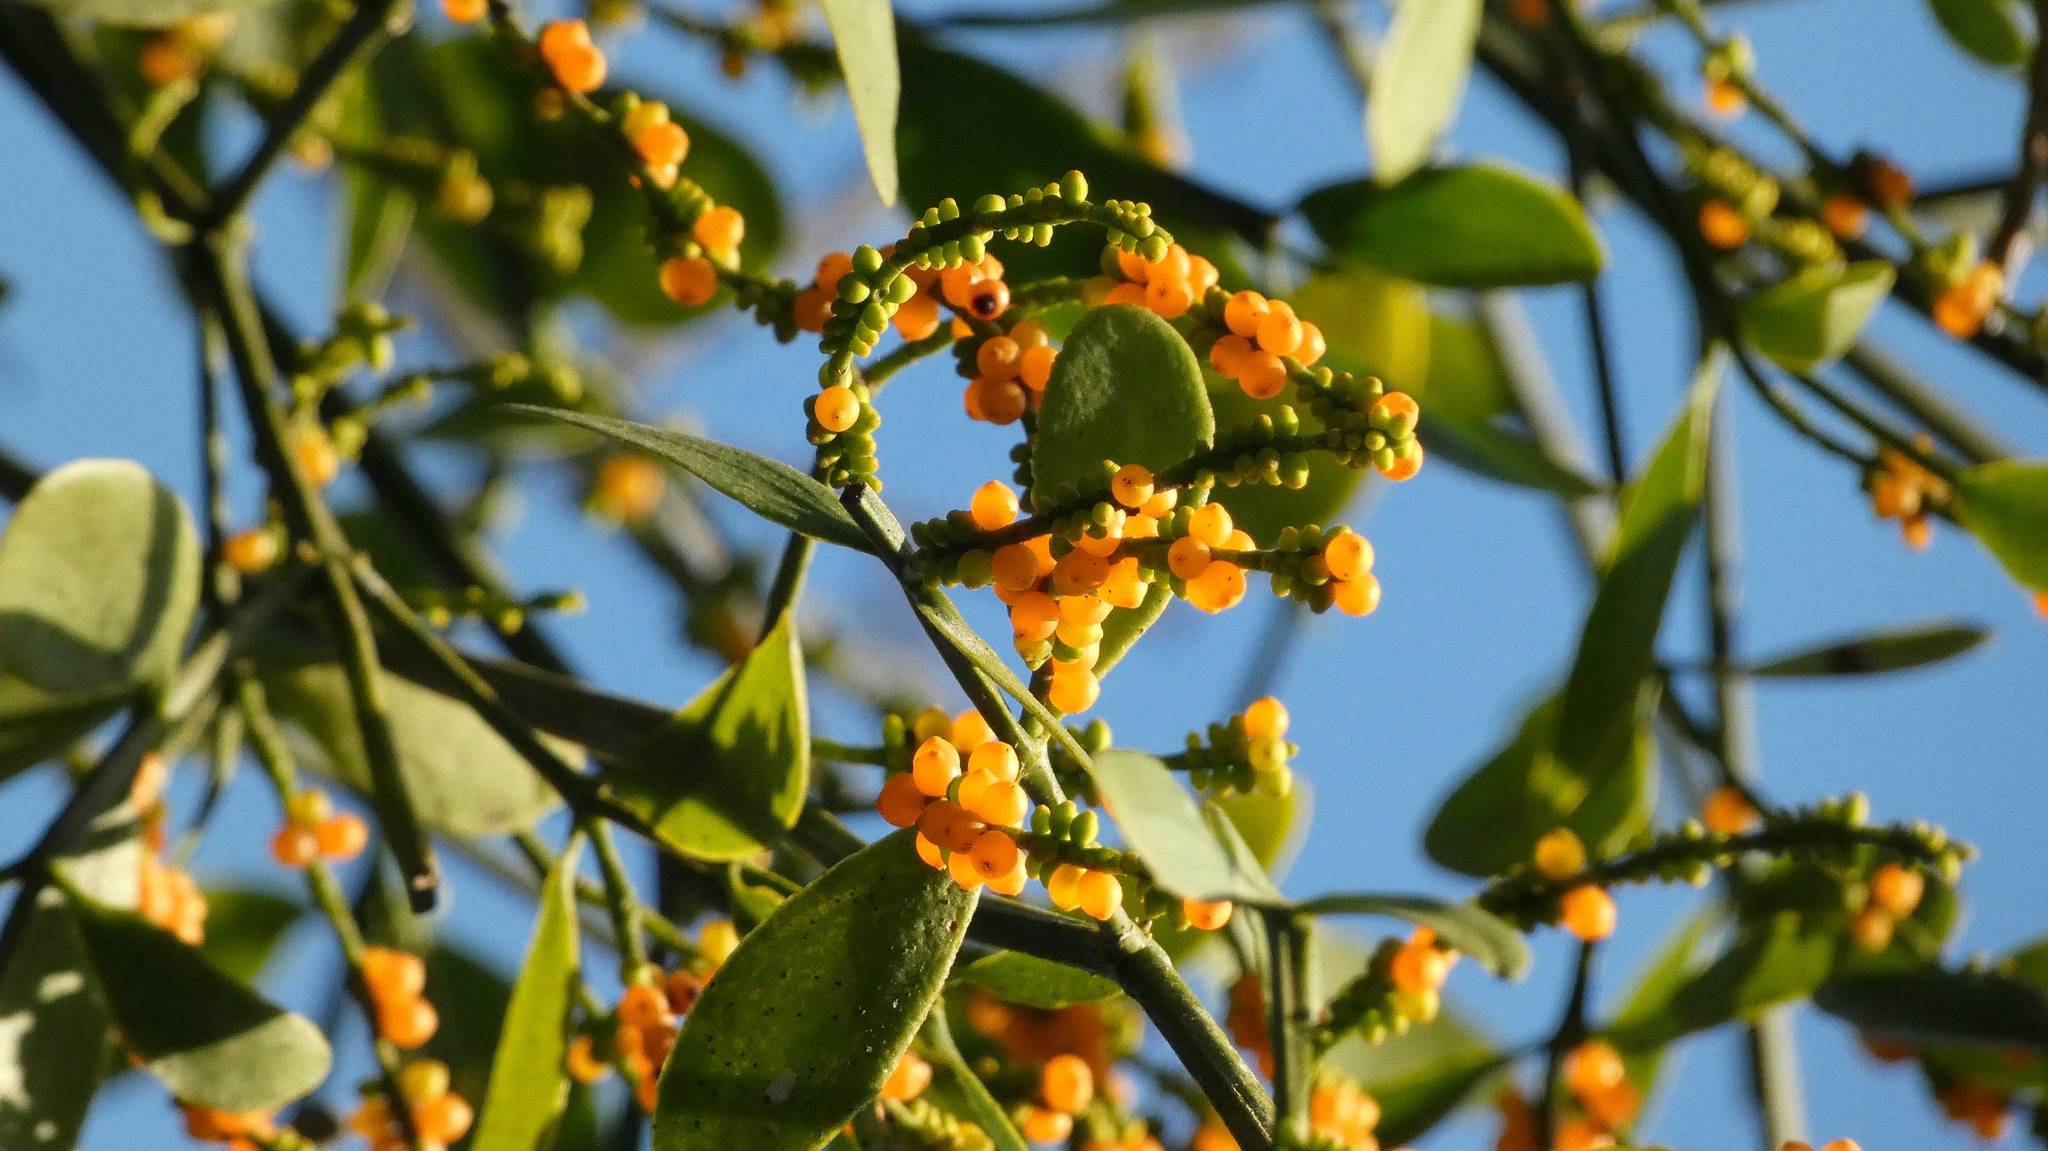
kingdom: Plantae
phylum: Tracheophyta
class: Magnoliopsida
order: Santalales
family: Loranthaceae
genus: Psittacanthus
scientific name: Psittacanthus calyculatus
